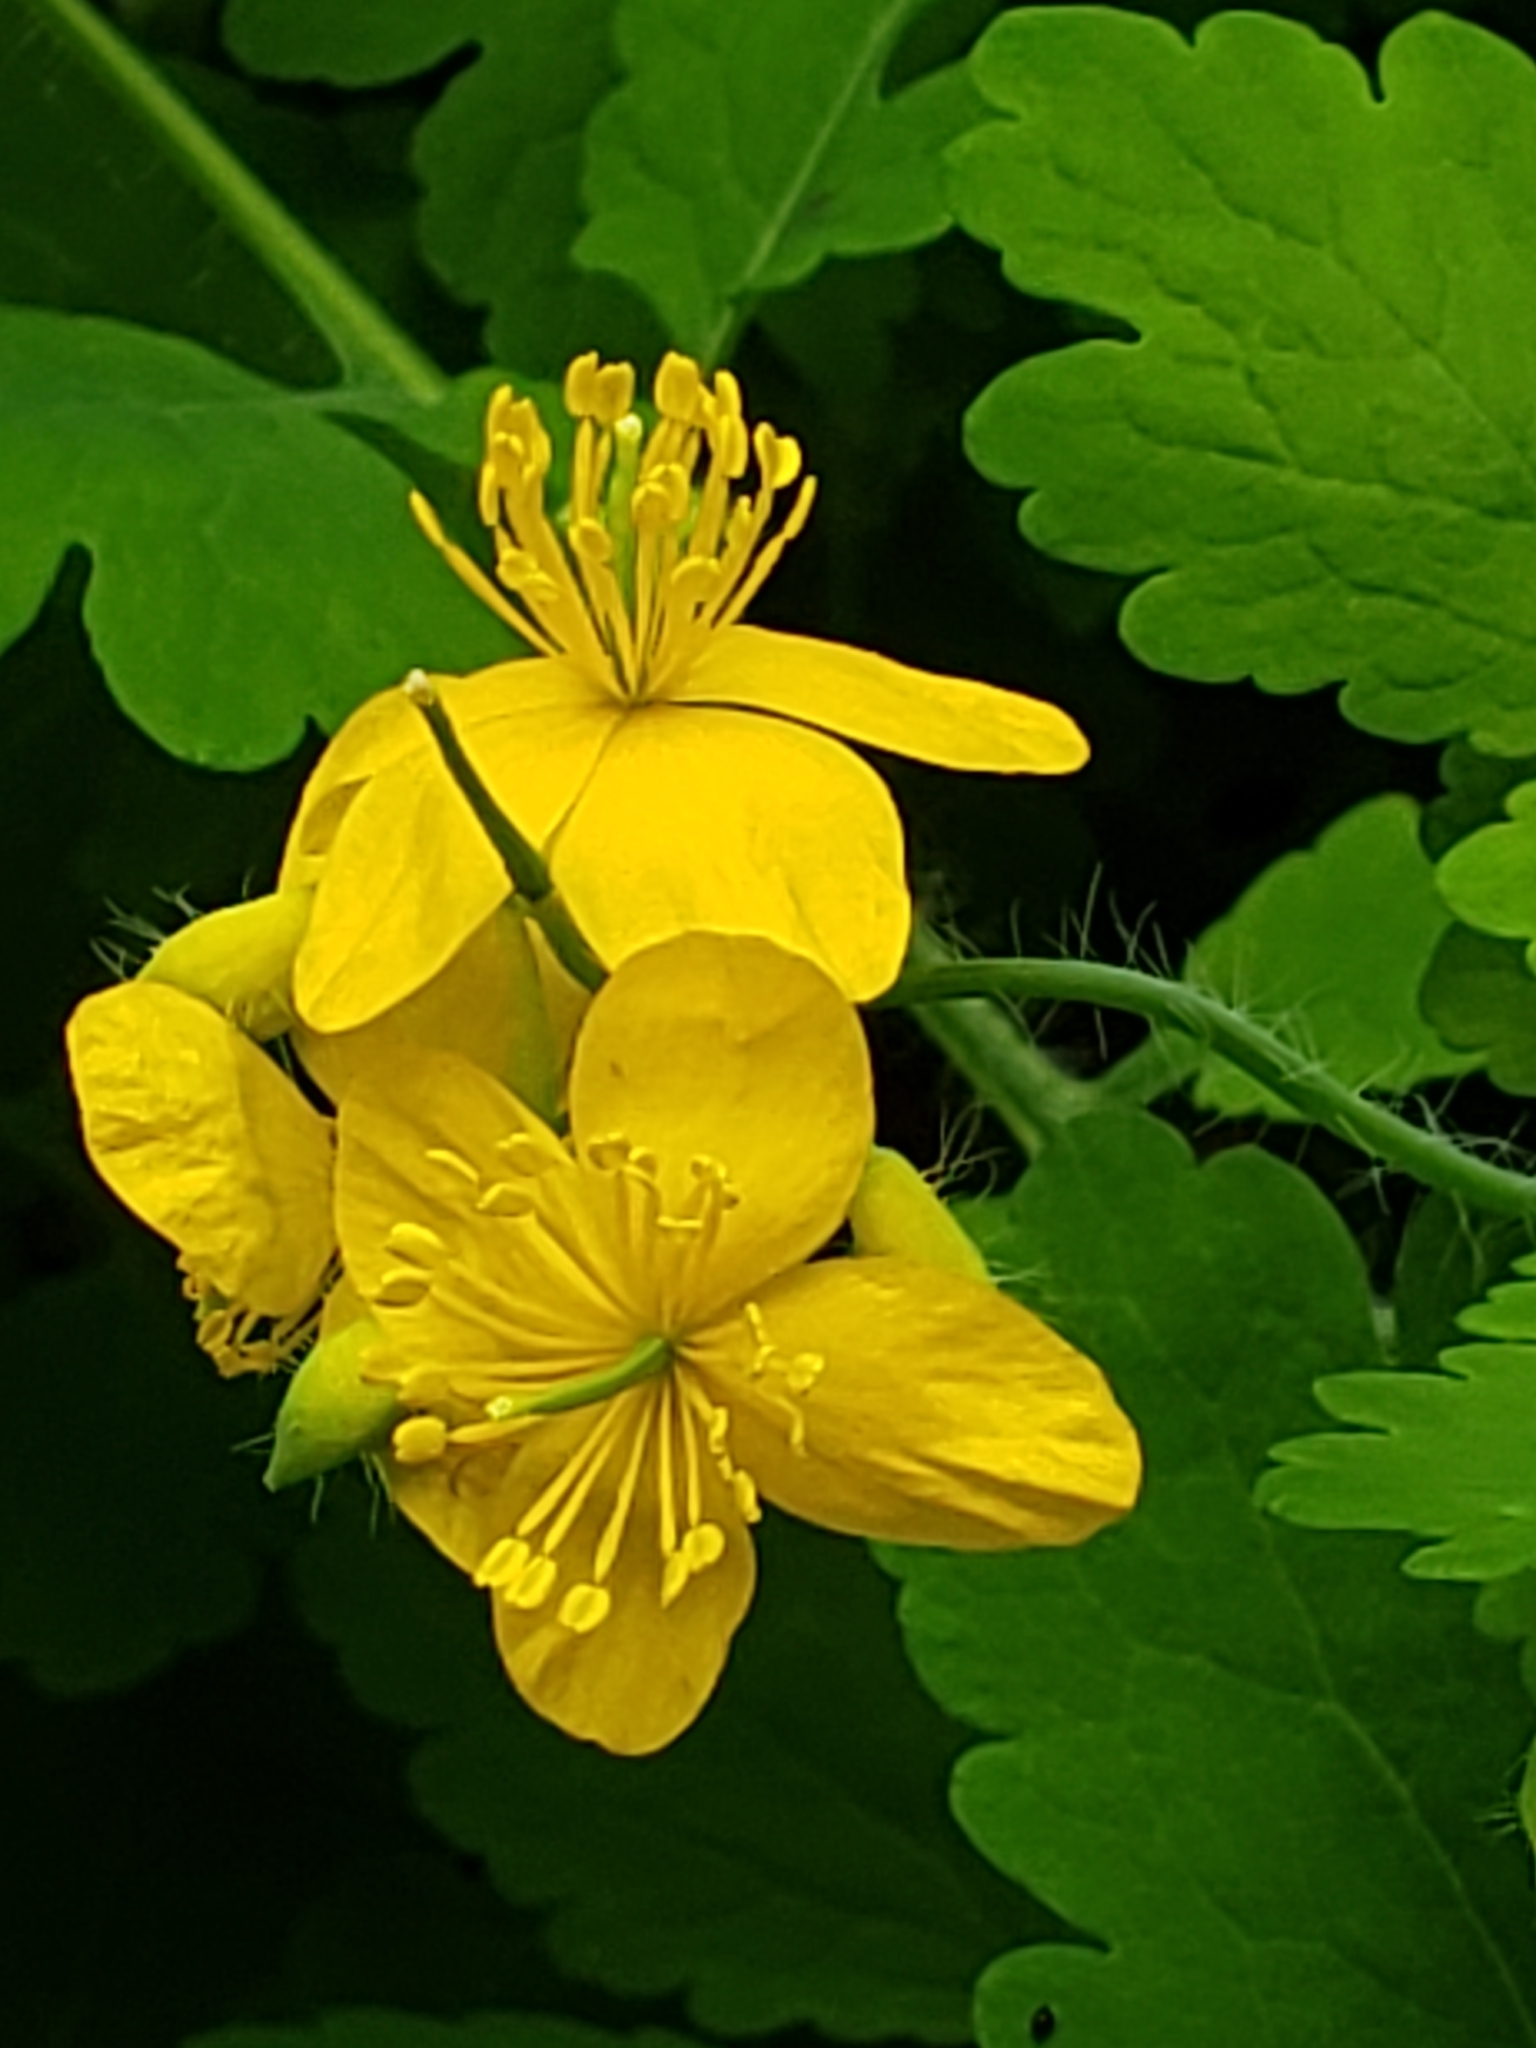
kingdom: Plantae
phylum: Tracheophyta
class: Magnoliopsida
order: Ranunculales
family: Papaveraceae
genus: Chelidonium
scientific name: Chelidonium majus
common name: Greater celandine
